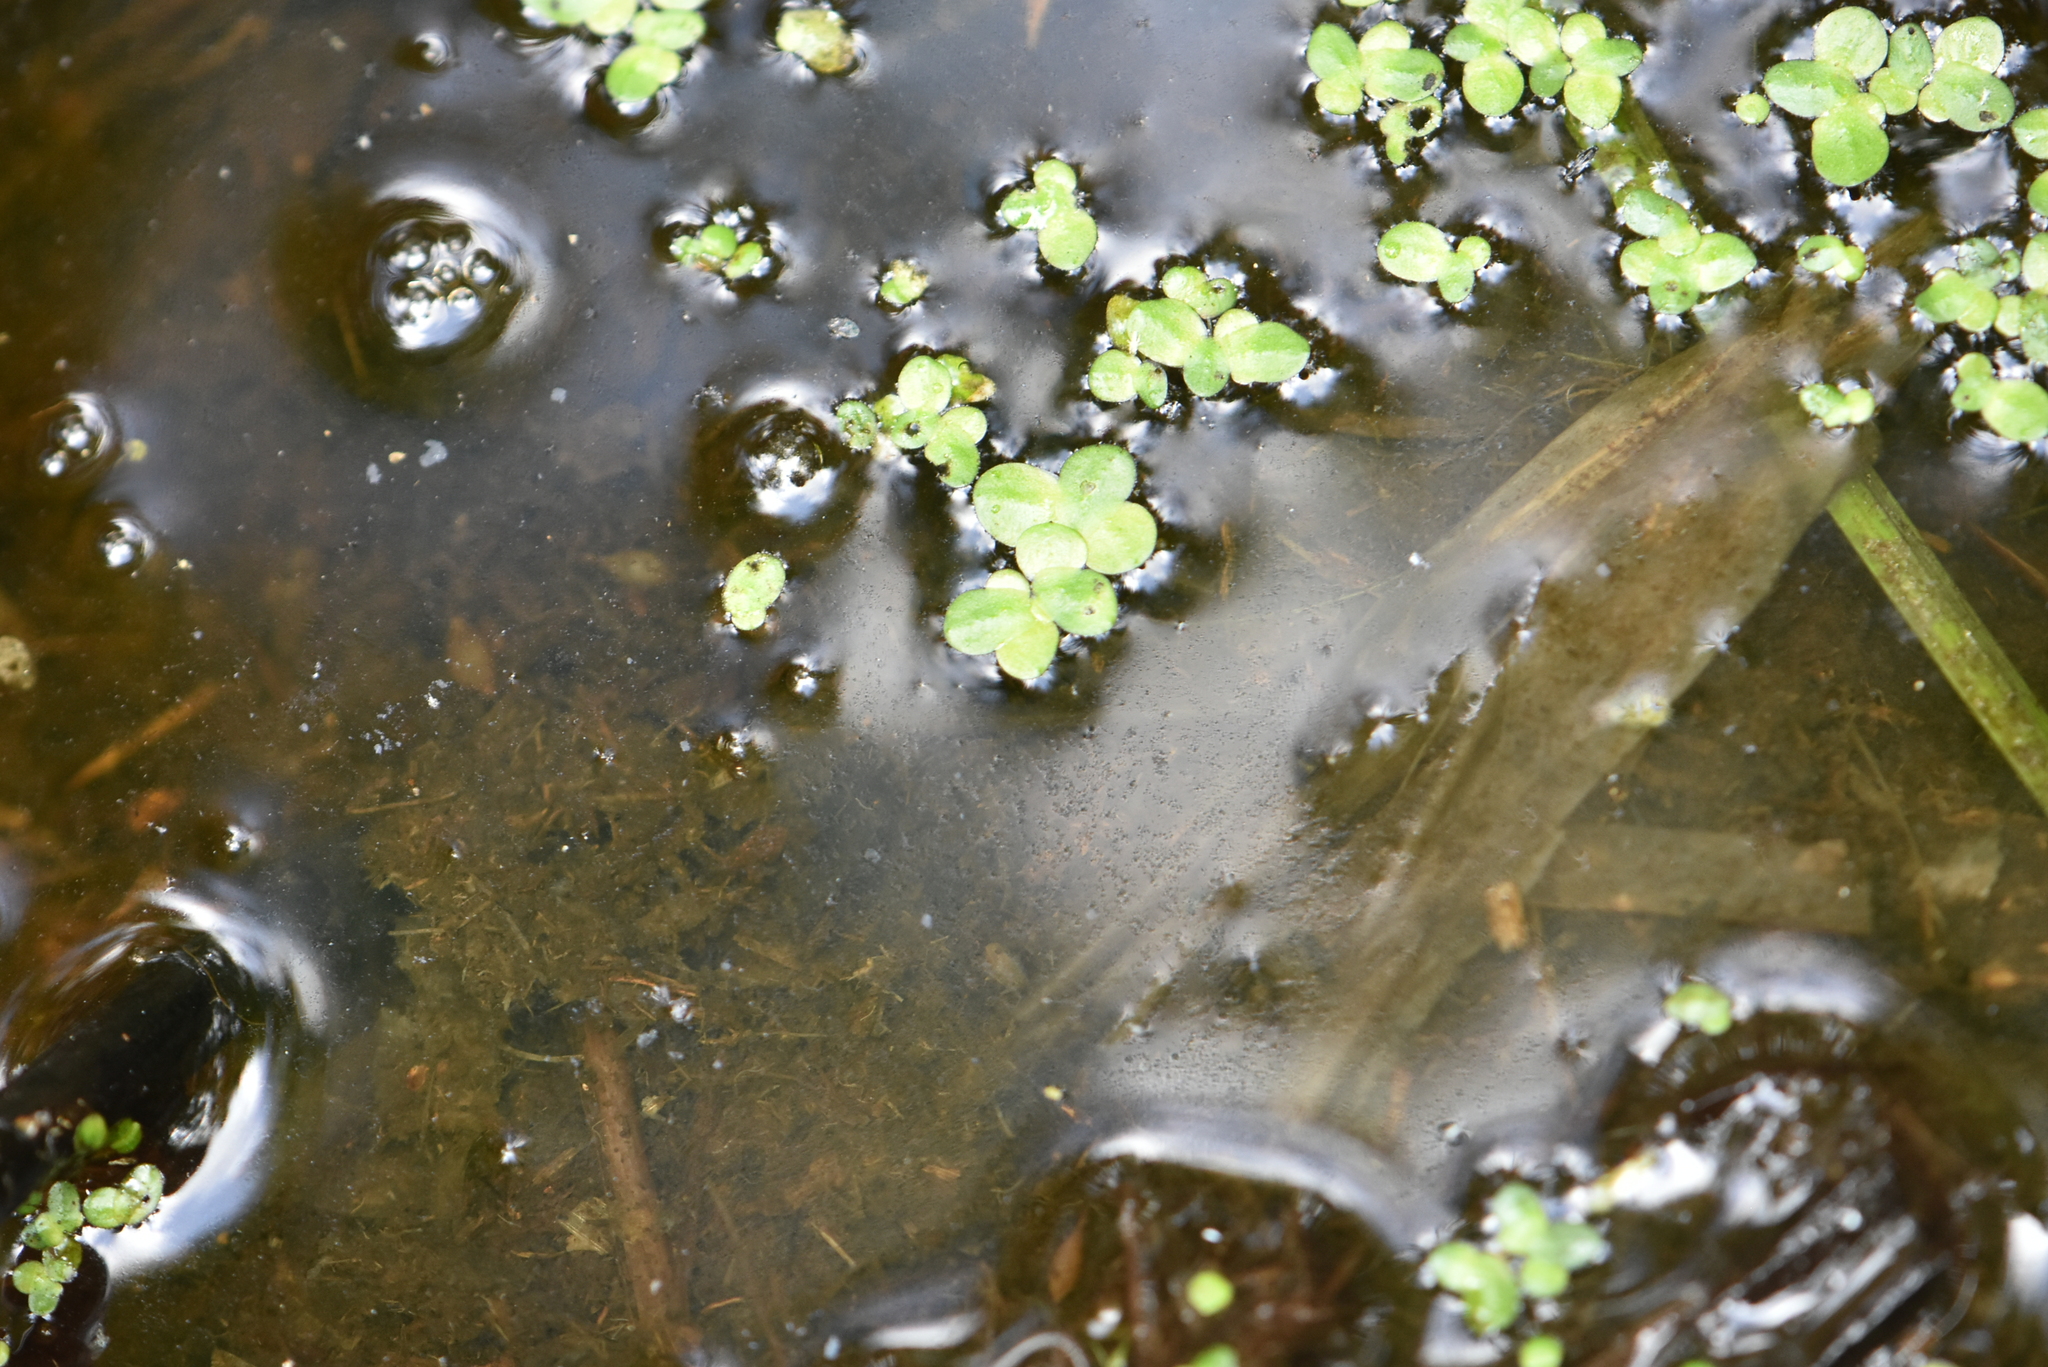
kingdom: Plantae
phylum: Tracheophyta
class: Liliopsida
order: Alismatales
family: Araceae
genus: Lemna
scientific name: Lemna turionifera
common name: Perennial duckweed
